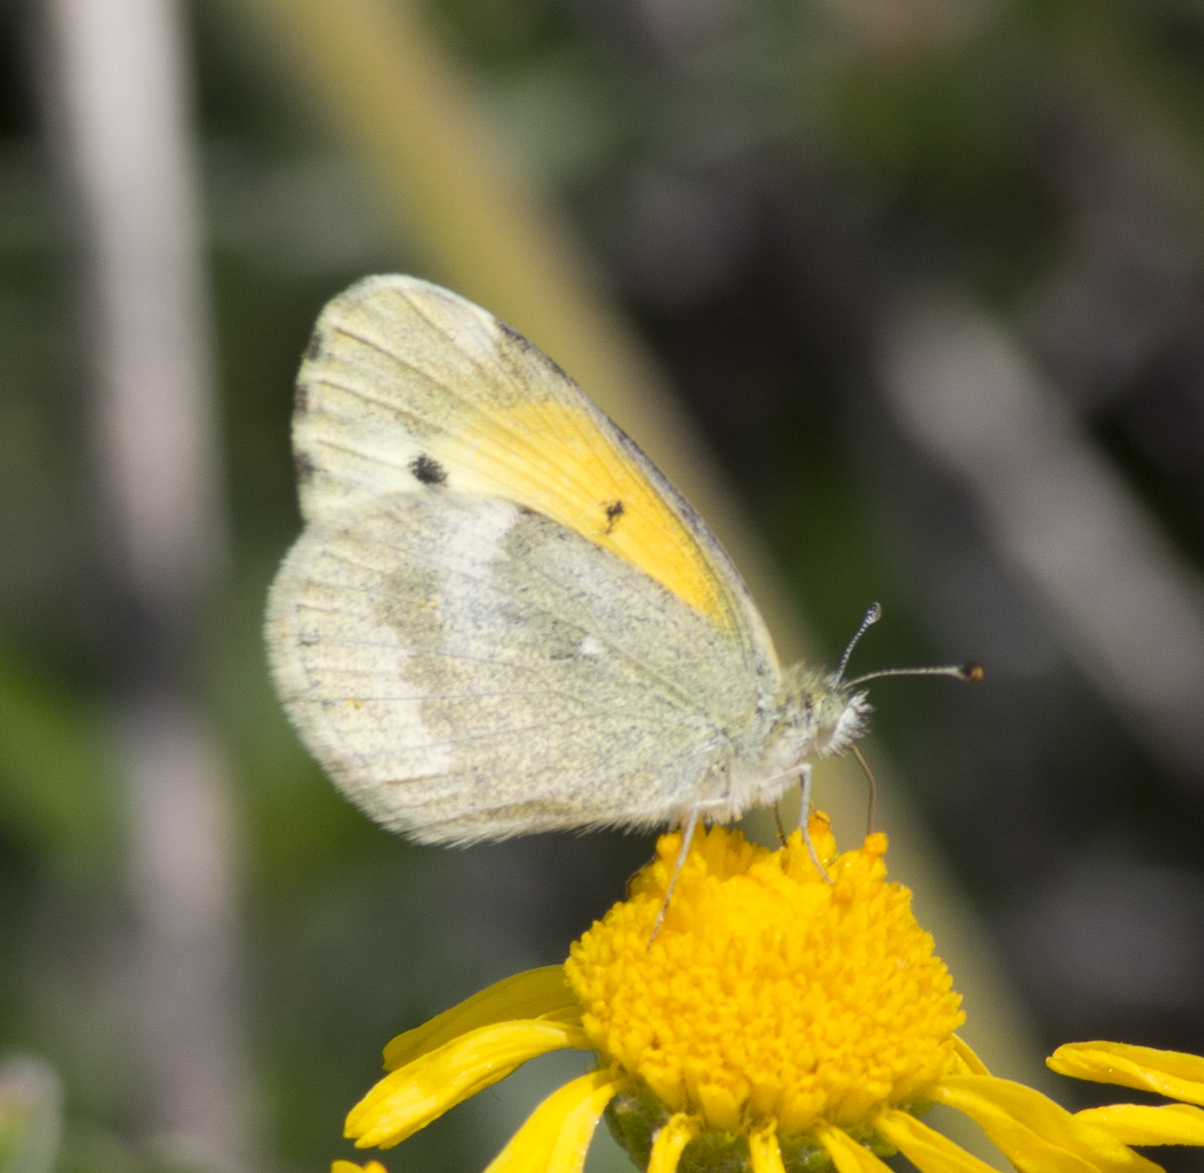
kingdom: Animalia
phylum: Arthropoda
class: Insecta
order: Lepidoptera
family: Pieridae
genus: Nathalis
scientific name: Nathalis iole
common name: Dainty sulphur
